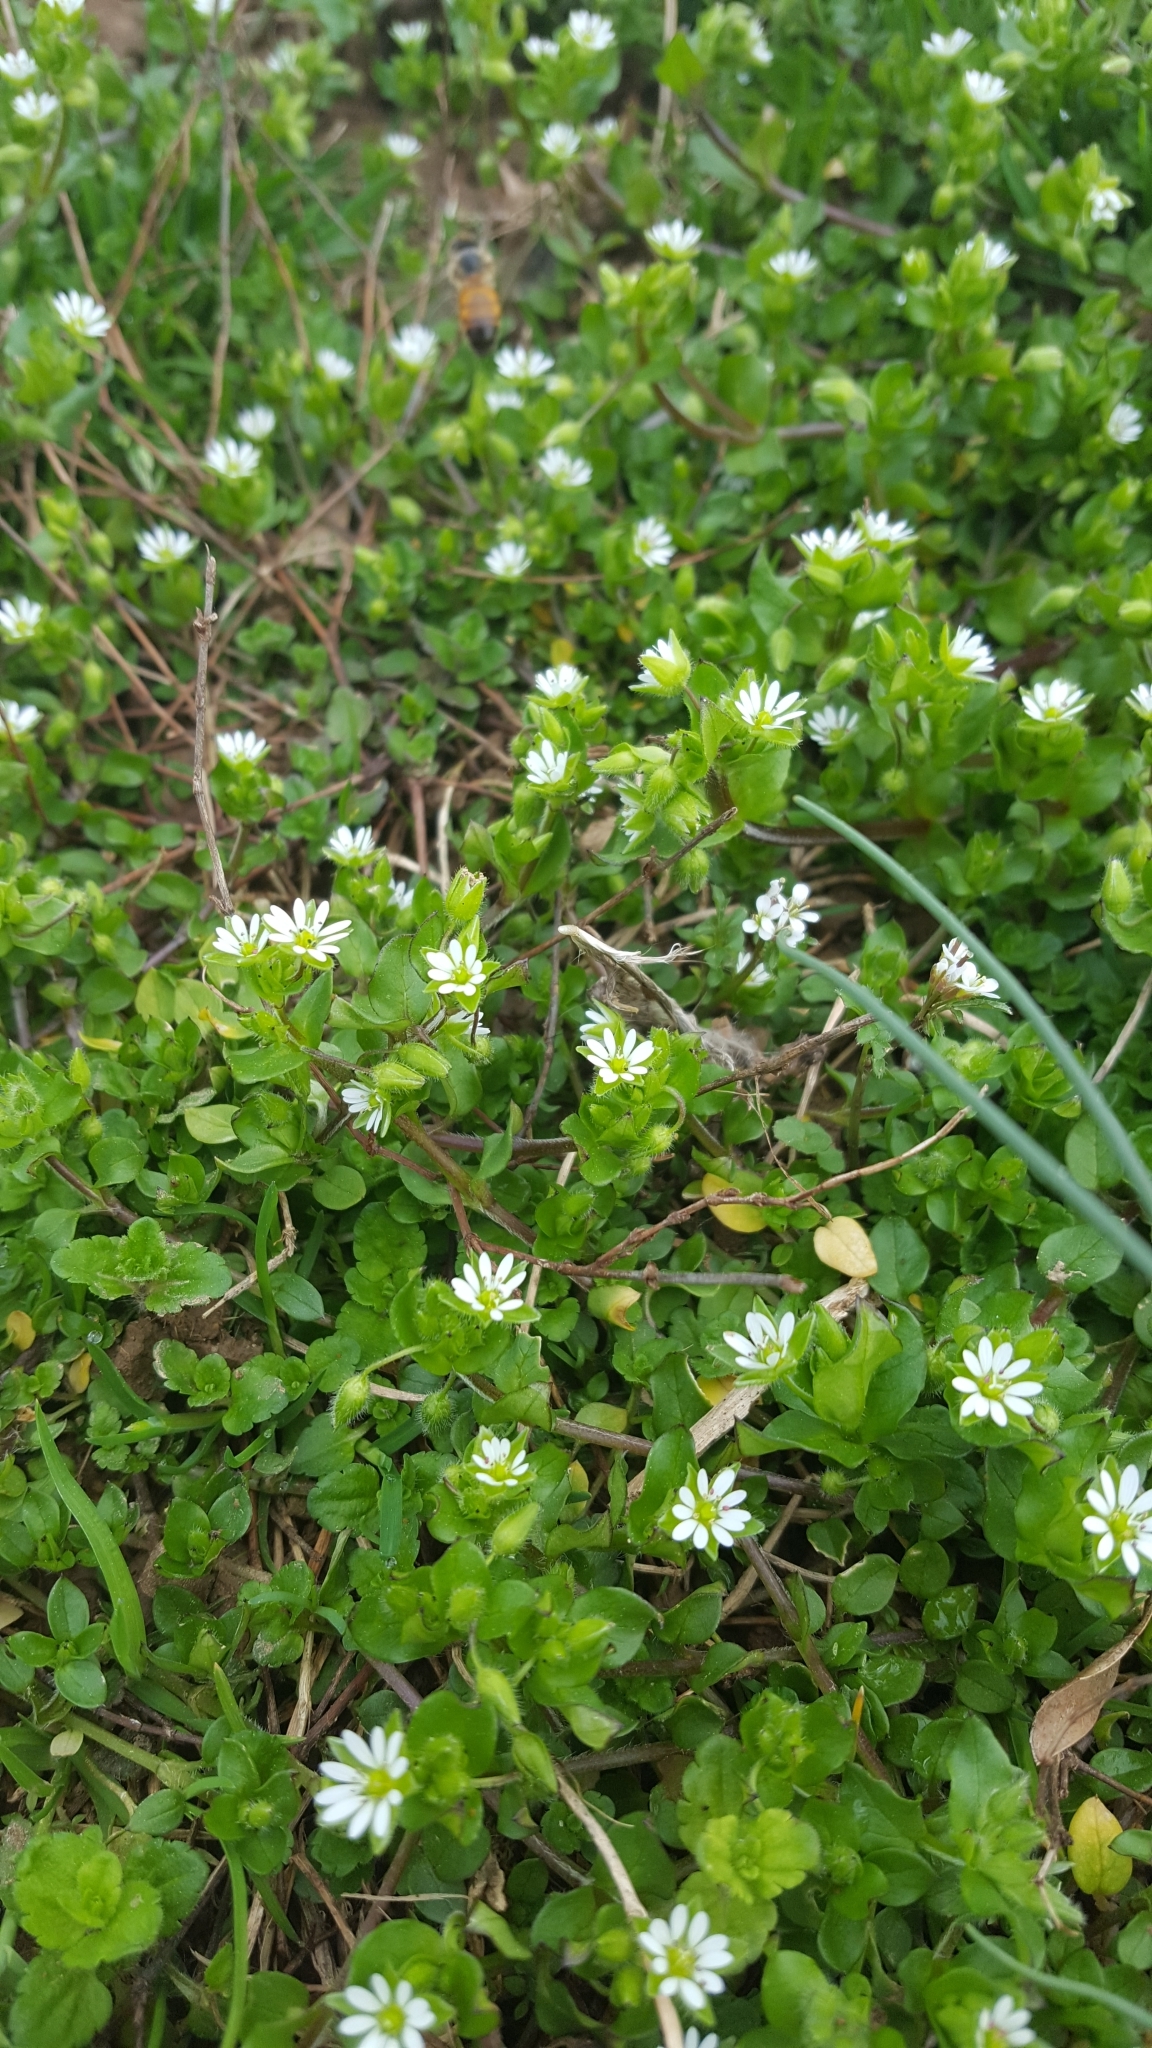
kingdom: Plantae
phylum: Tracheophyta
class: Magnoliopsida
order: Caryophyllales
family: Caryophyllaceae
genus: Stellaria
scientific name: Stellaria media
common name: Common chickweed
